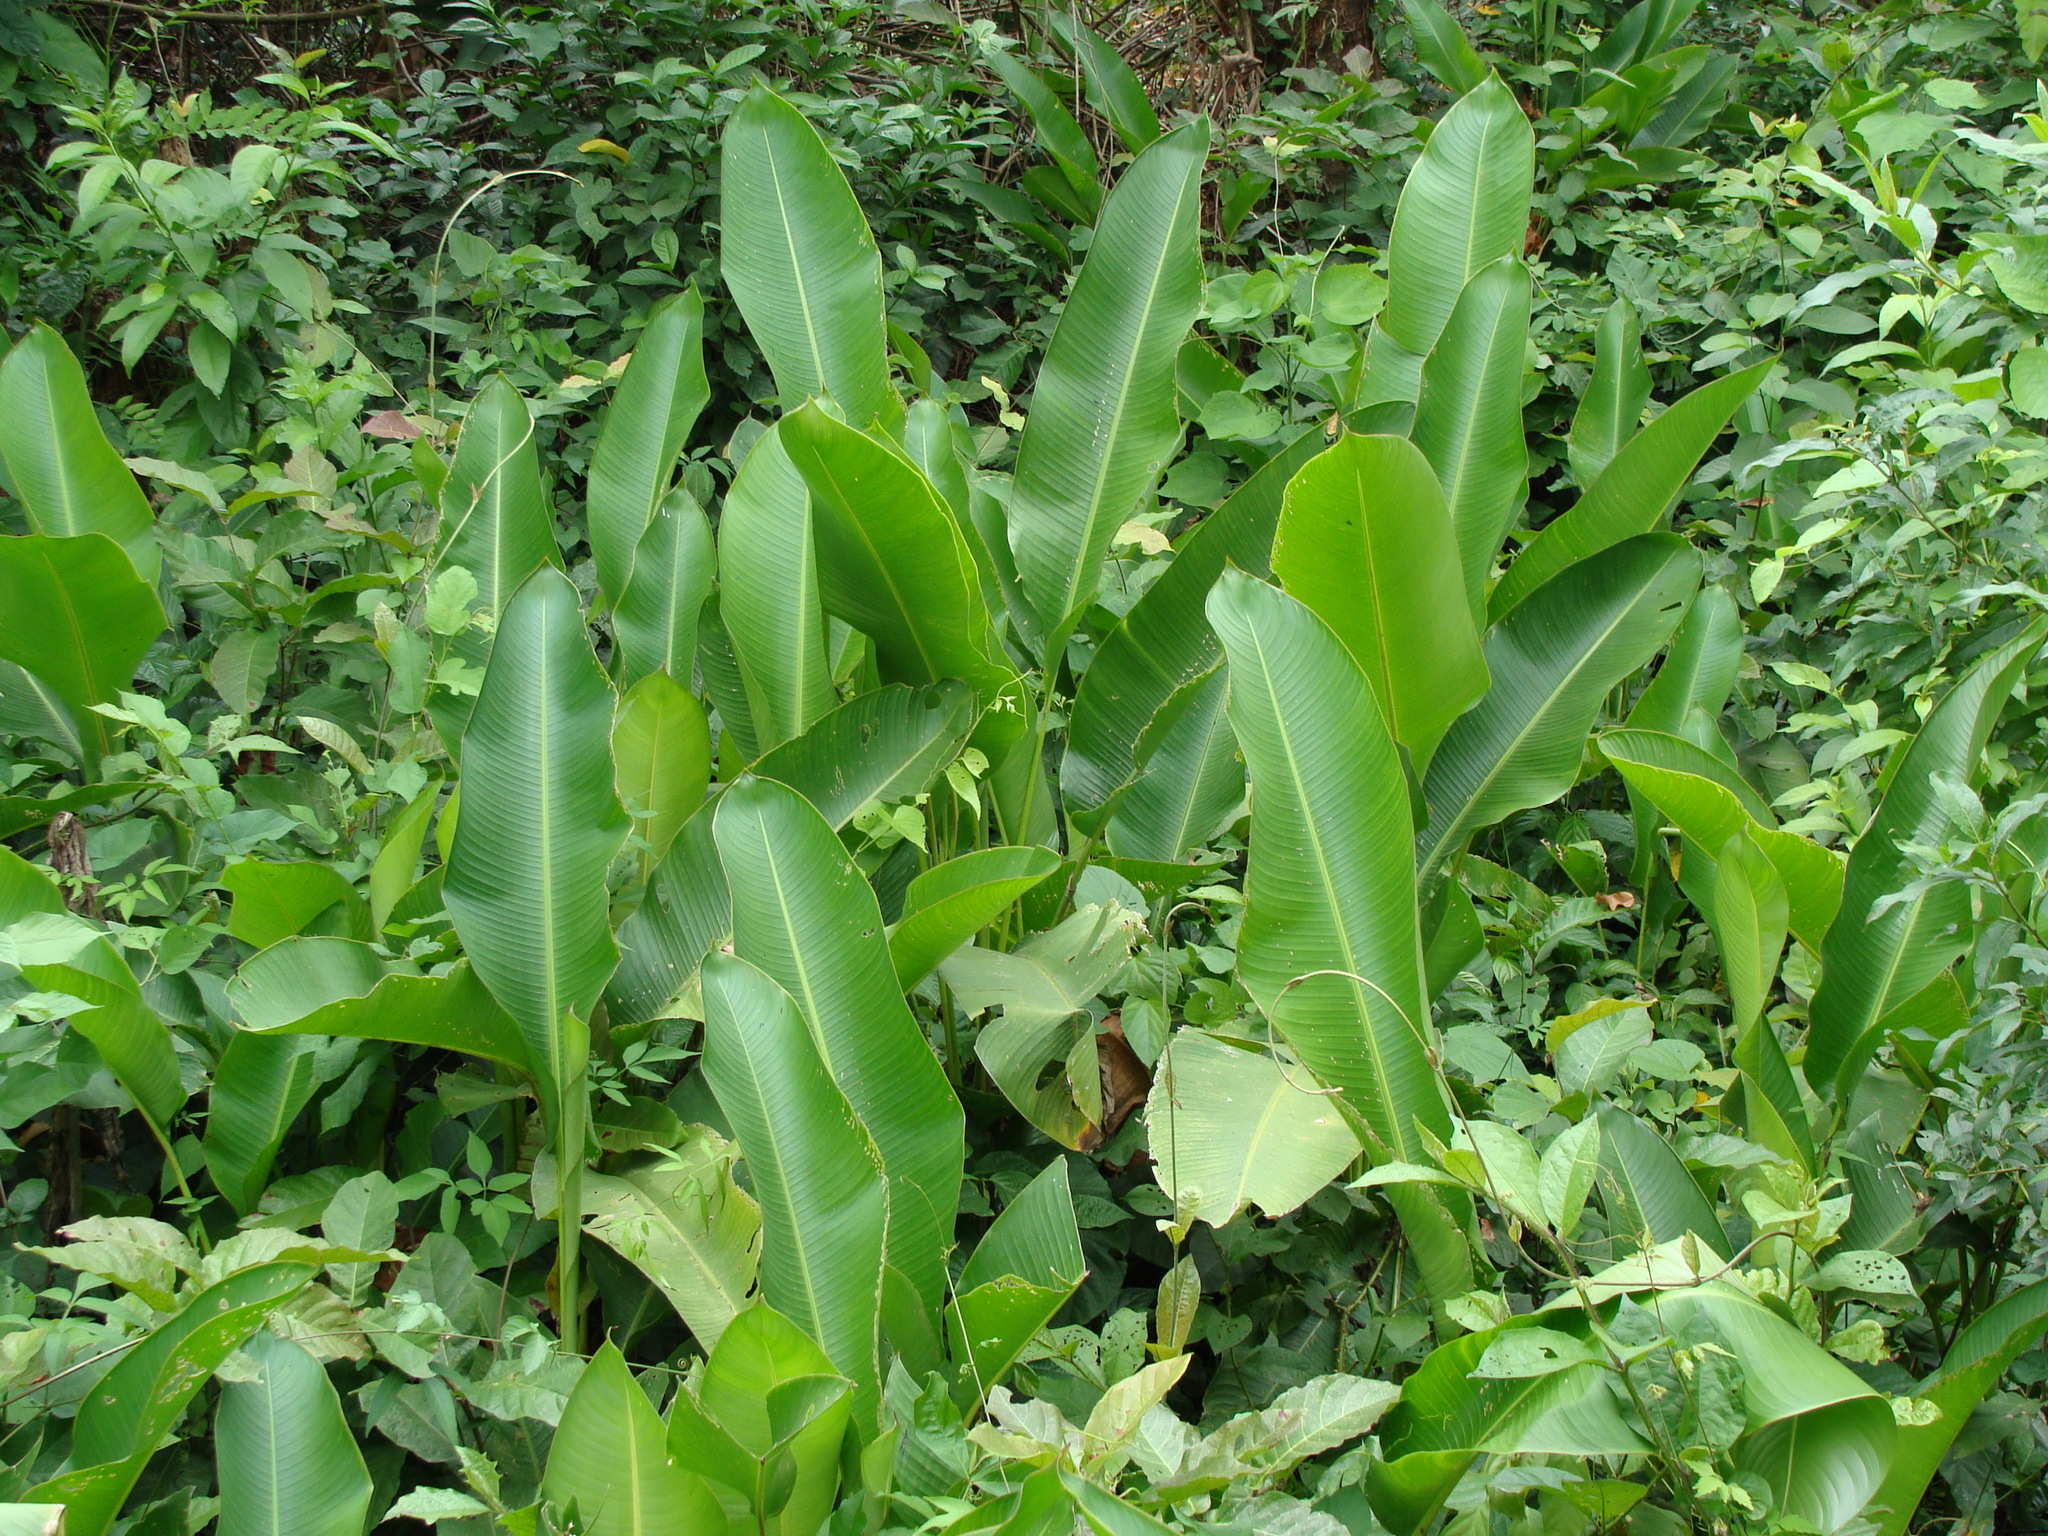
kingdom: Plantae
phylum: Tracheophyta
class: Liliopsida
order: Zingiberales
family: Heliconiaceae
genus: Heliconia
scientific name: Heliconia latispatha
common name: Expanded lobsterclaw
